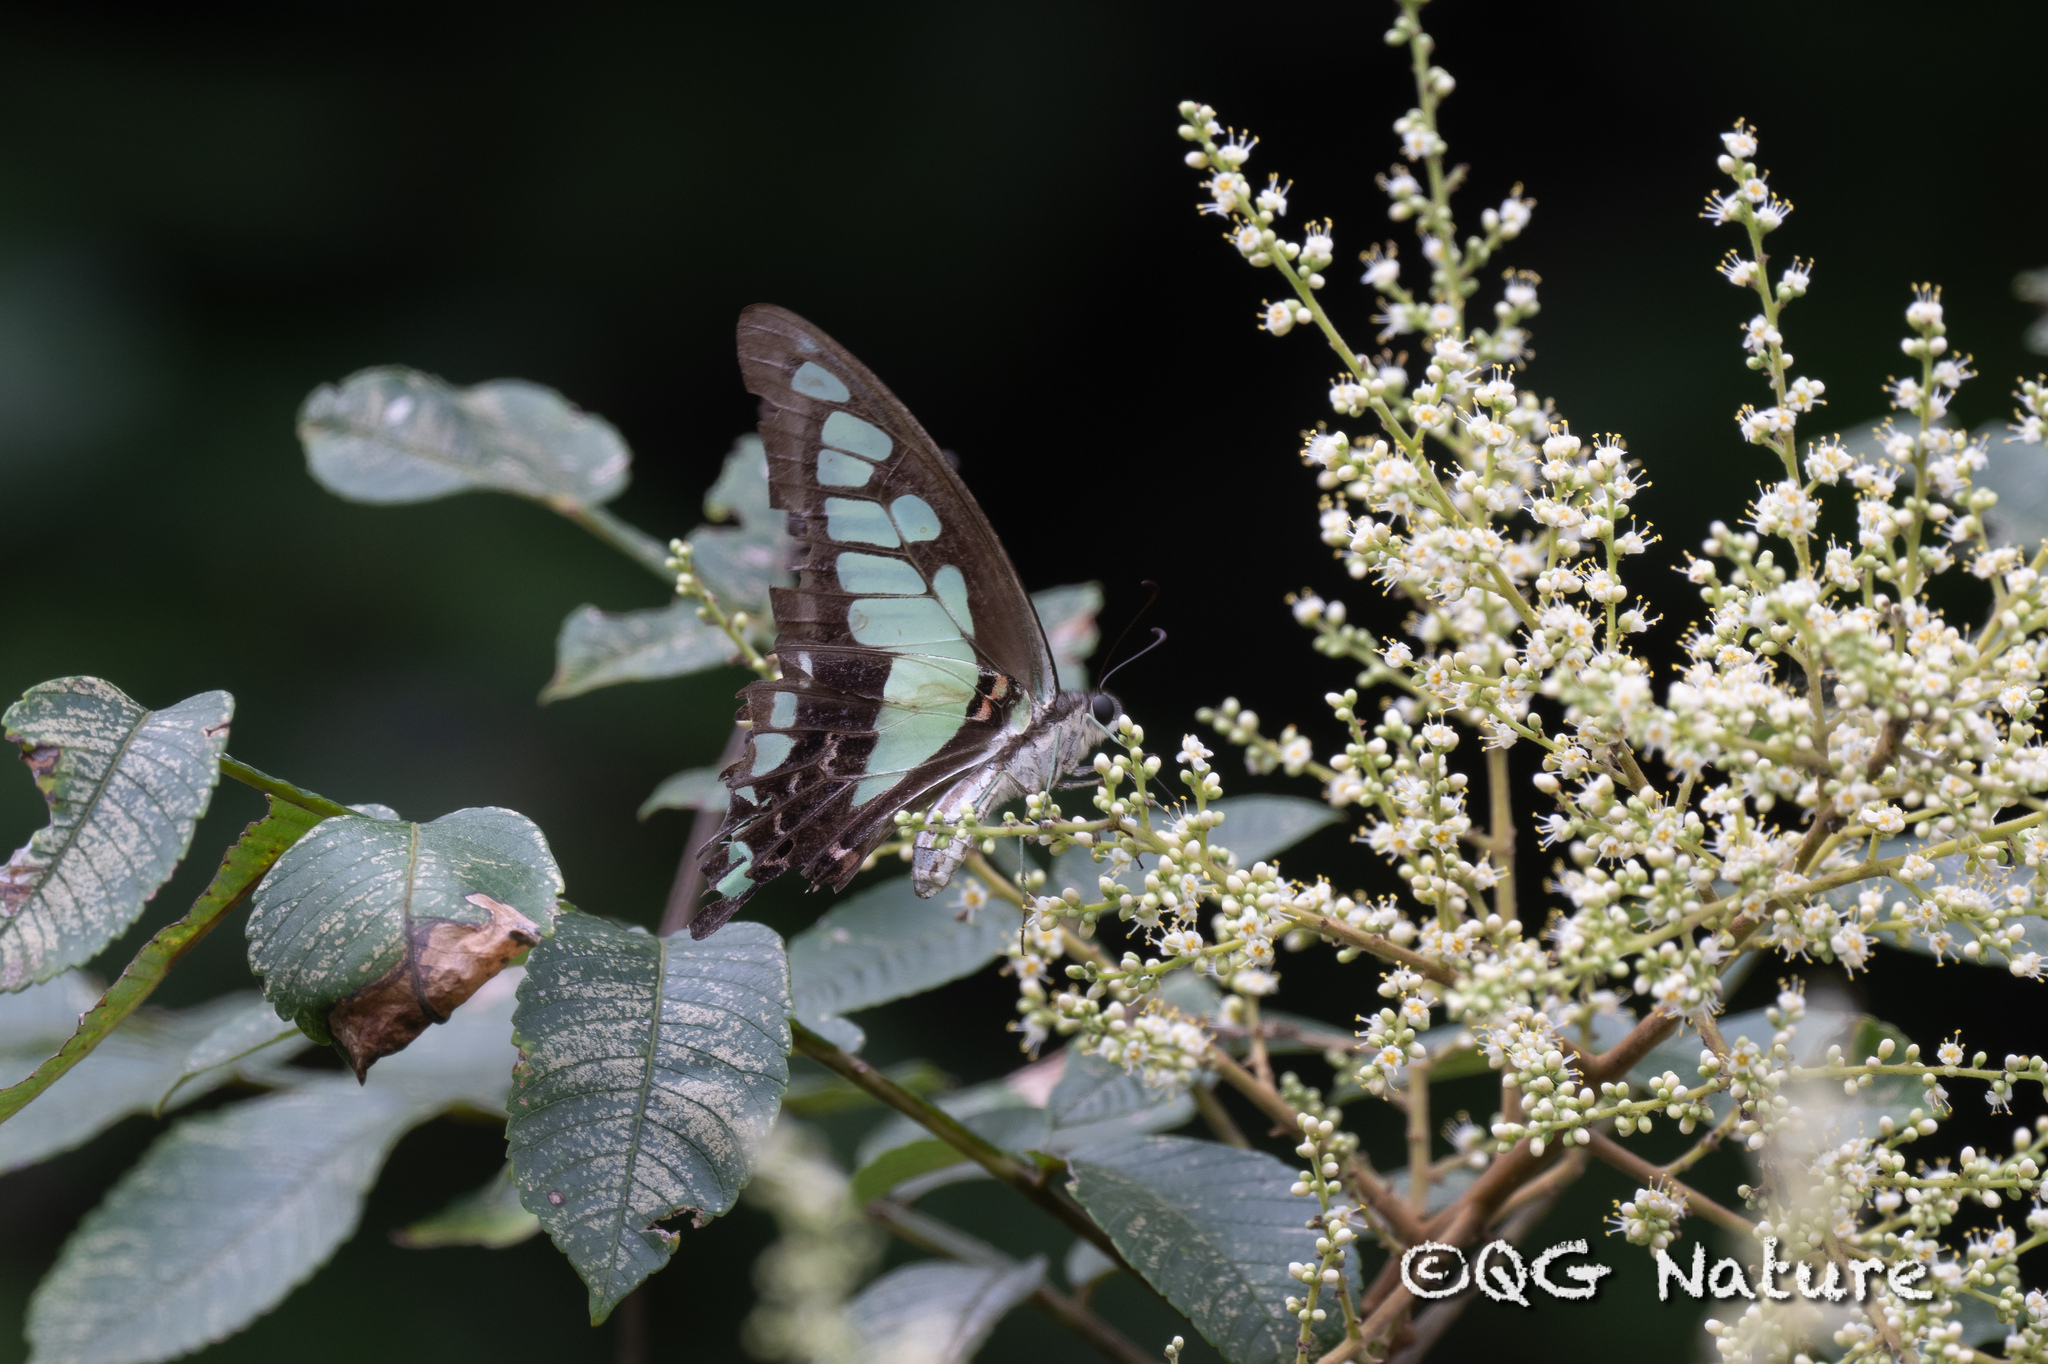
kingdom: Animalia
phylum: Arthropoda
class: Insecta
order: Lepidoptera
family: Papilionidae
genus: Graphium
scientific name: Graphium cloanthus
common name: Glassy bluebottle
